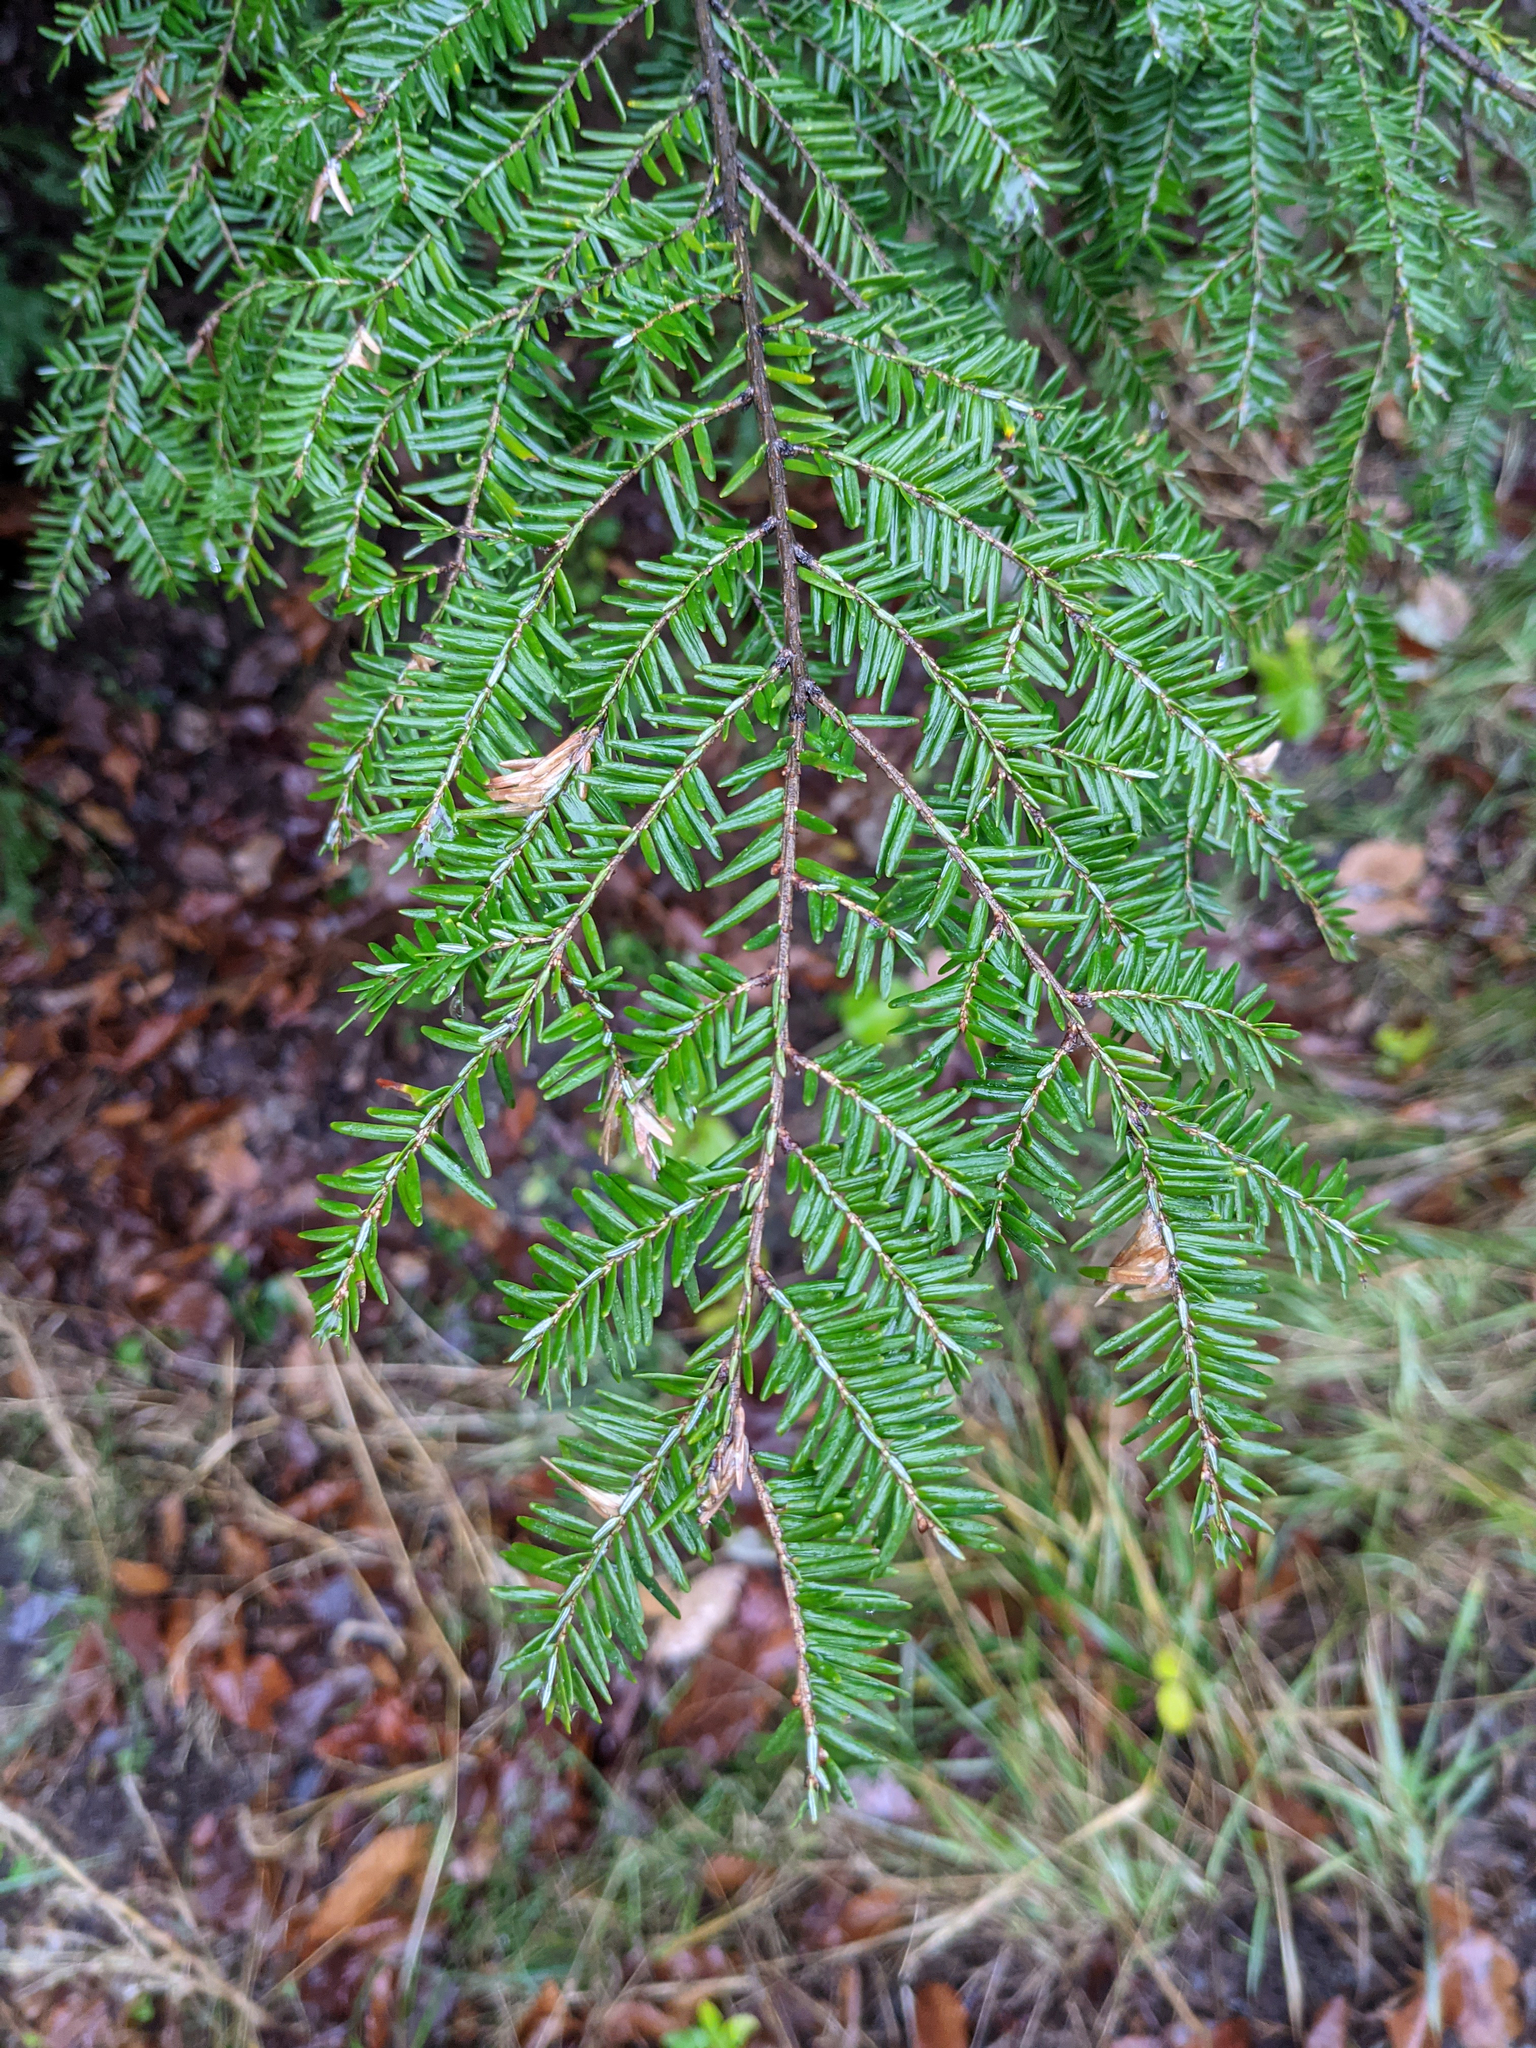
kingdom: Plantae
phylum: Tracheophyta
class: Pinopsida
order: Pinales
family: Pinaceae
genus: Tsuga
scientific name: Tsuga canadensis
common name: Eastern hemlock
